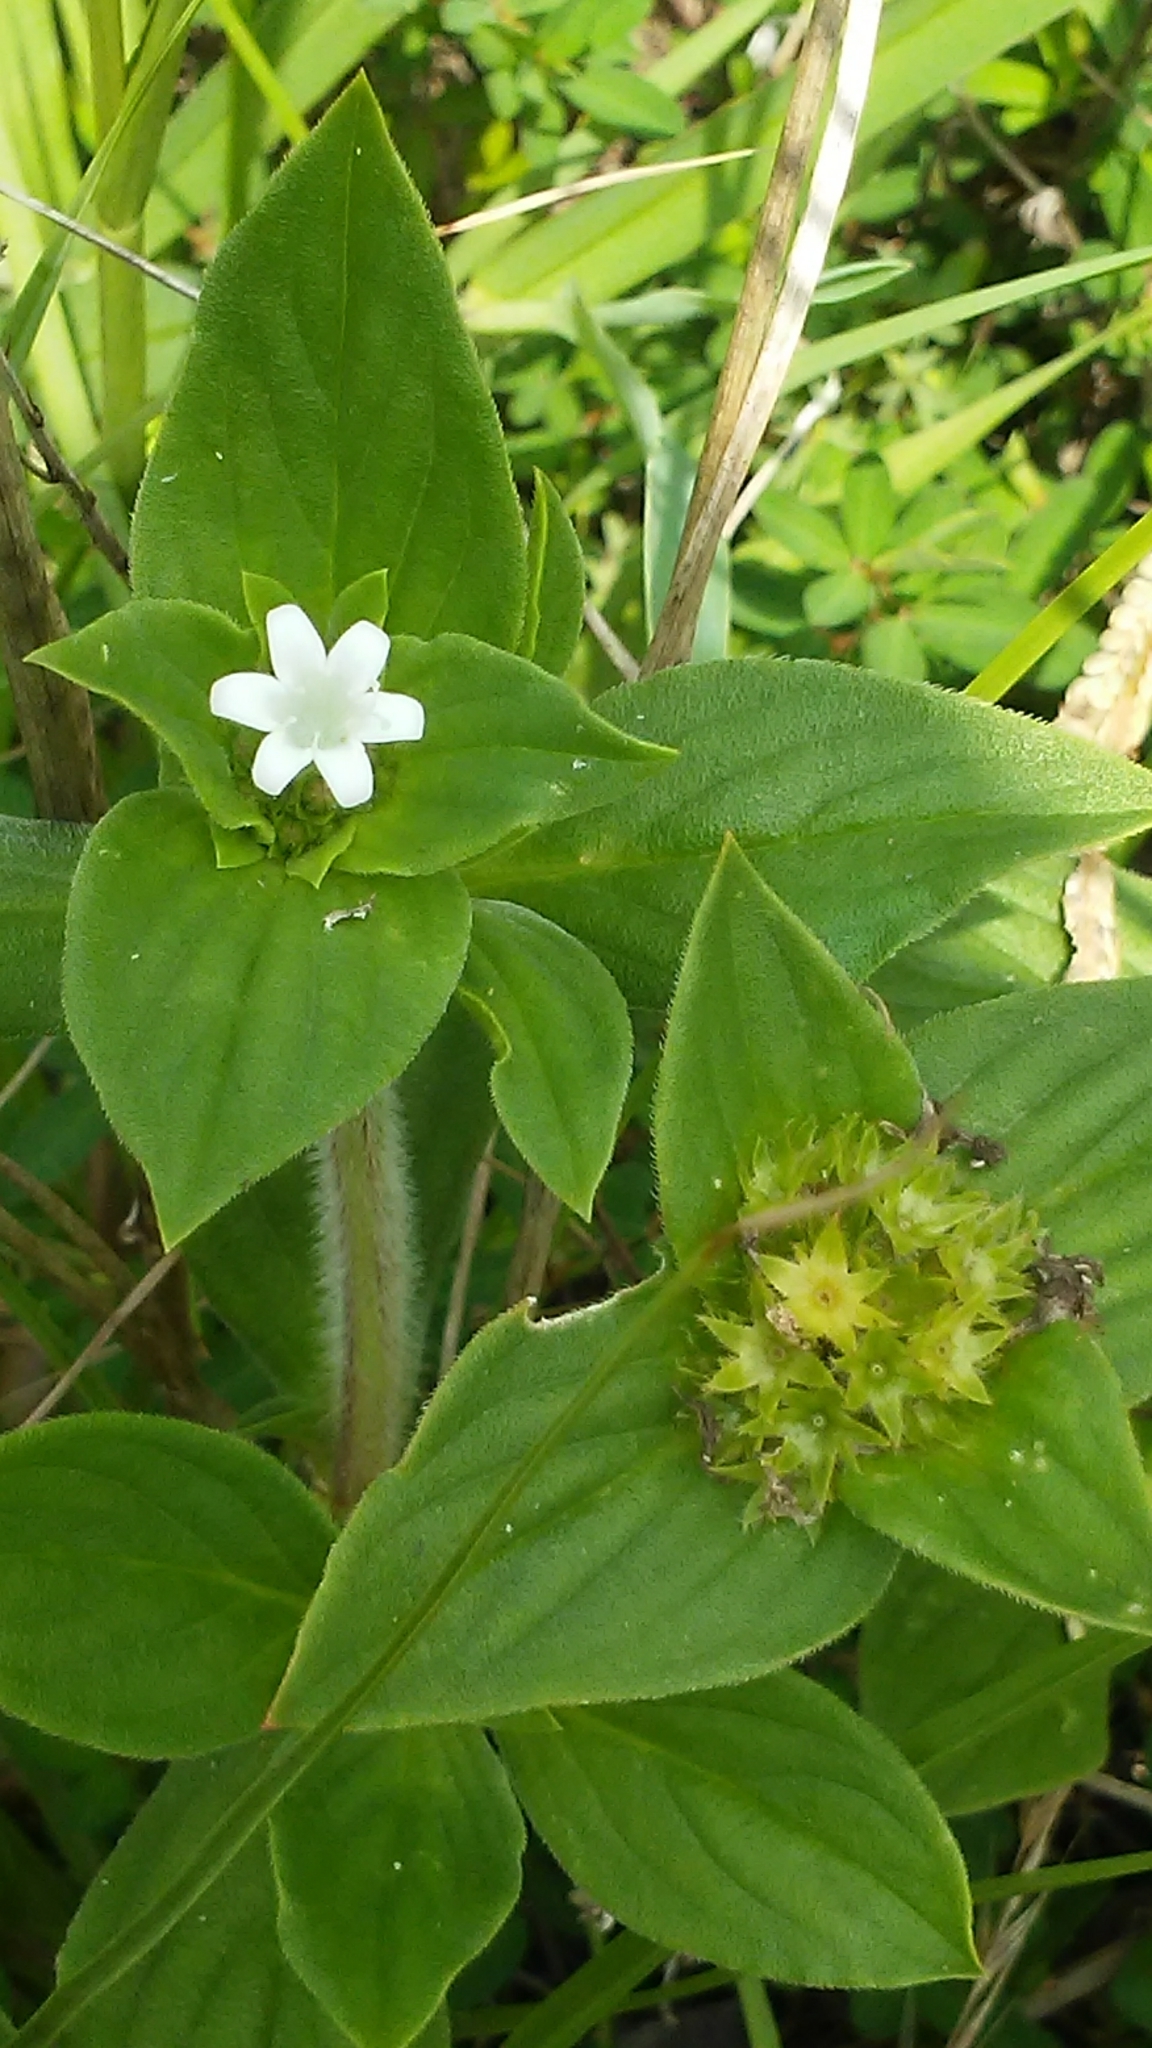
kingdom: Plantae
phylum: Tracheophyta
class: Magnoliopsida
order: Gentianales
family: Rubiaceae
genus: Richardia
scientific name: Richardia scabra
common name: Rough mexican clover
